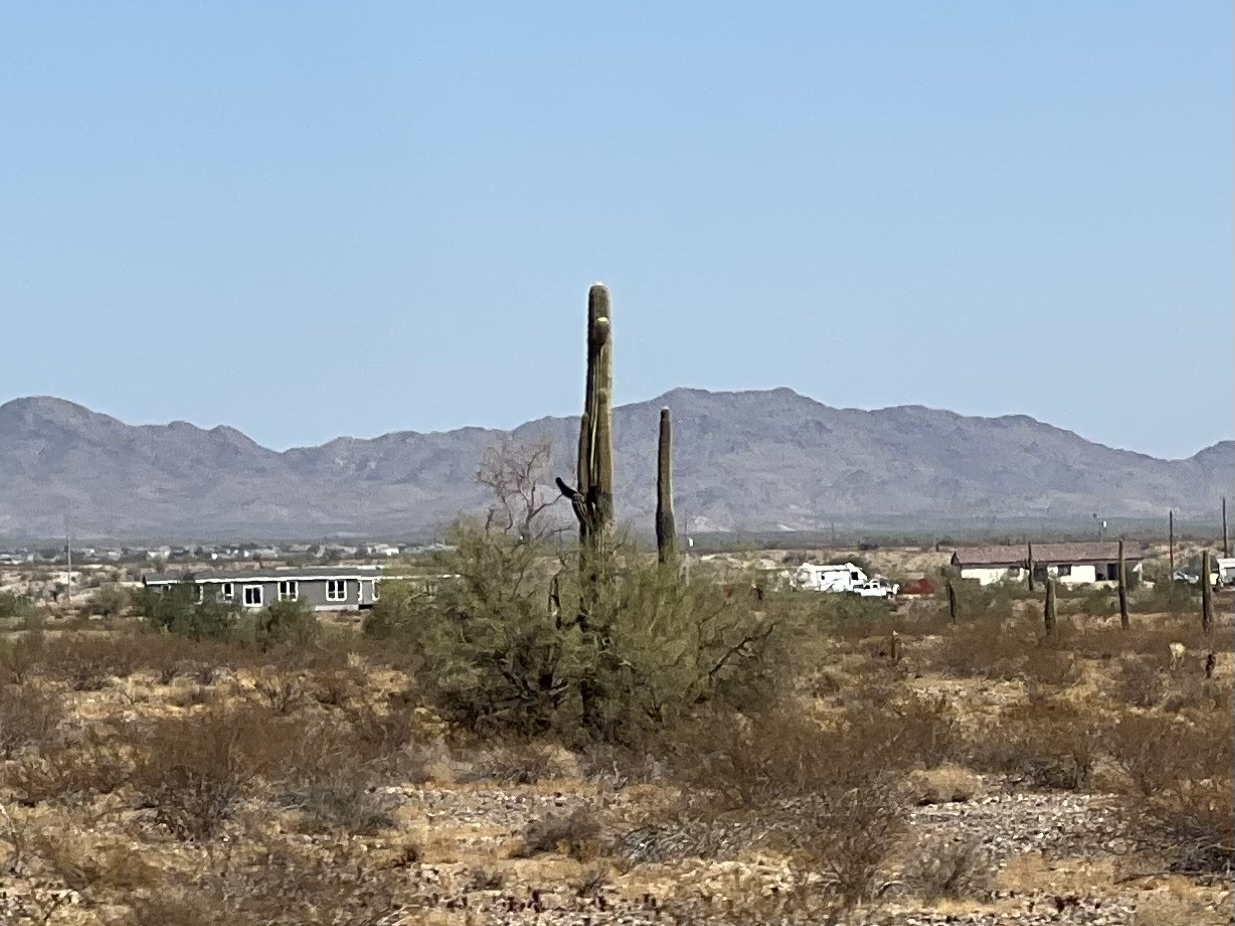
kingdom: Plantae
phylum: Tracheophyta
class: Magnoliopsida
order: Caryophyllales
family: Cactaceae
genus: Carnegiea
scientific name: Carnegiea gigantea
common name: Saguaro
